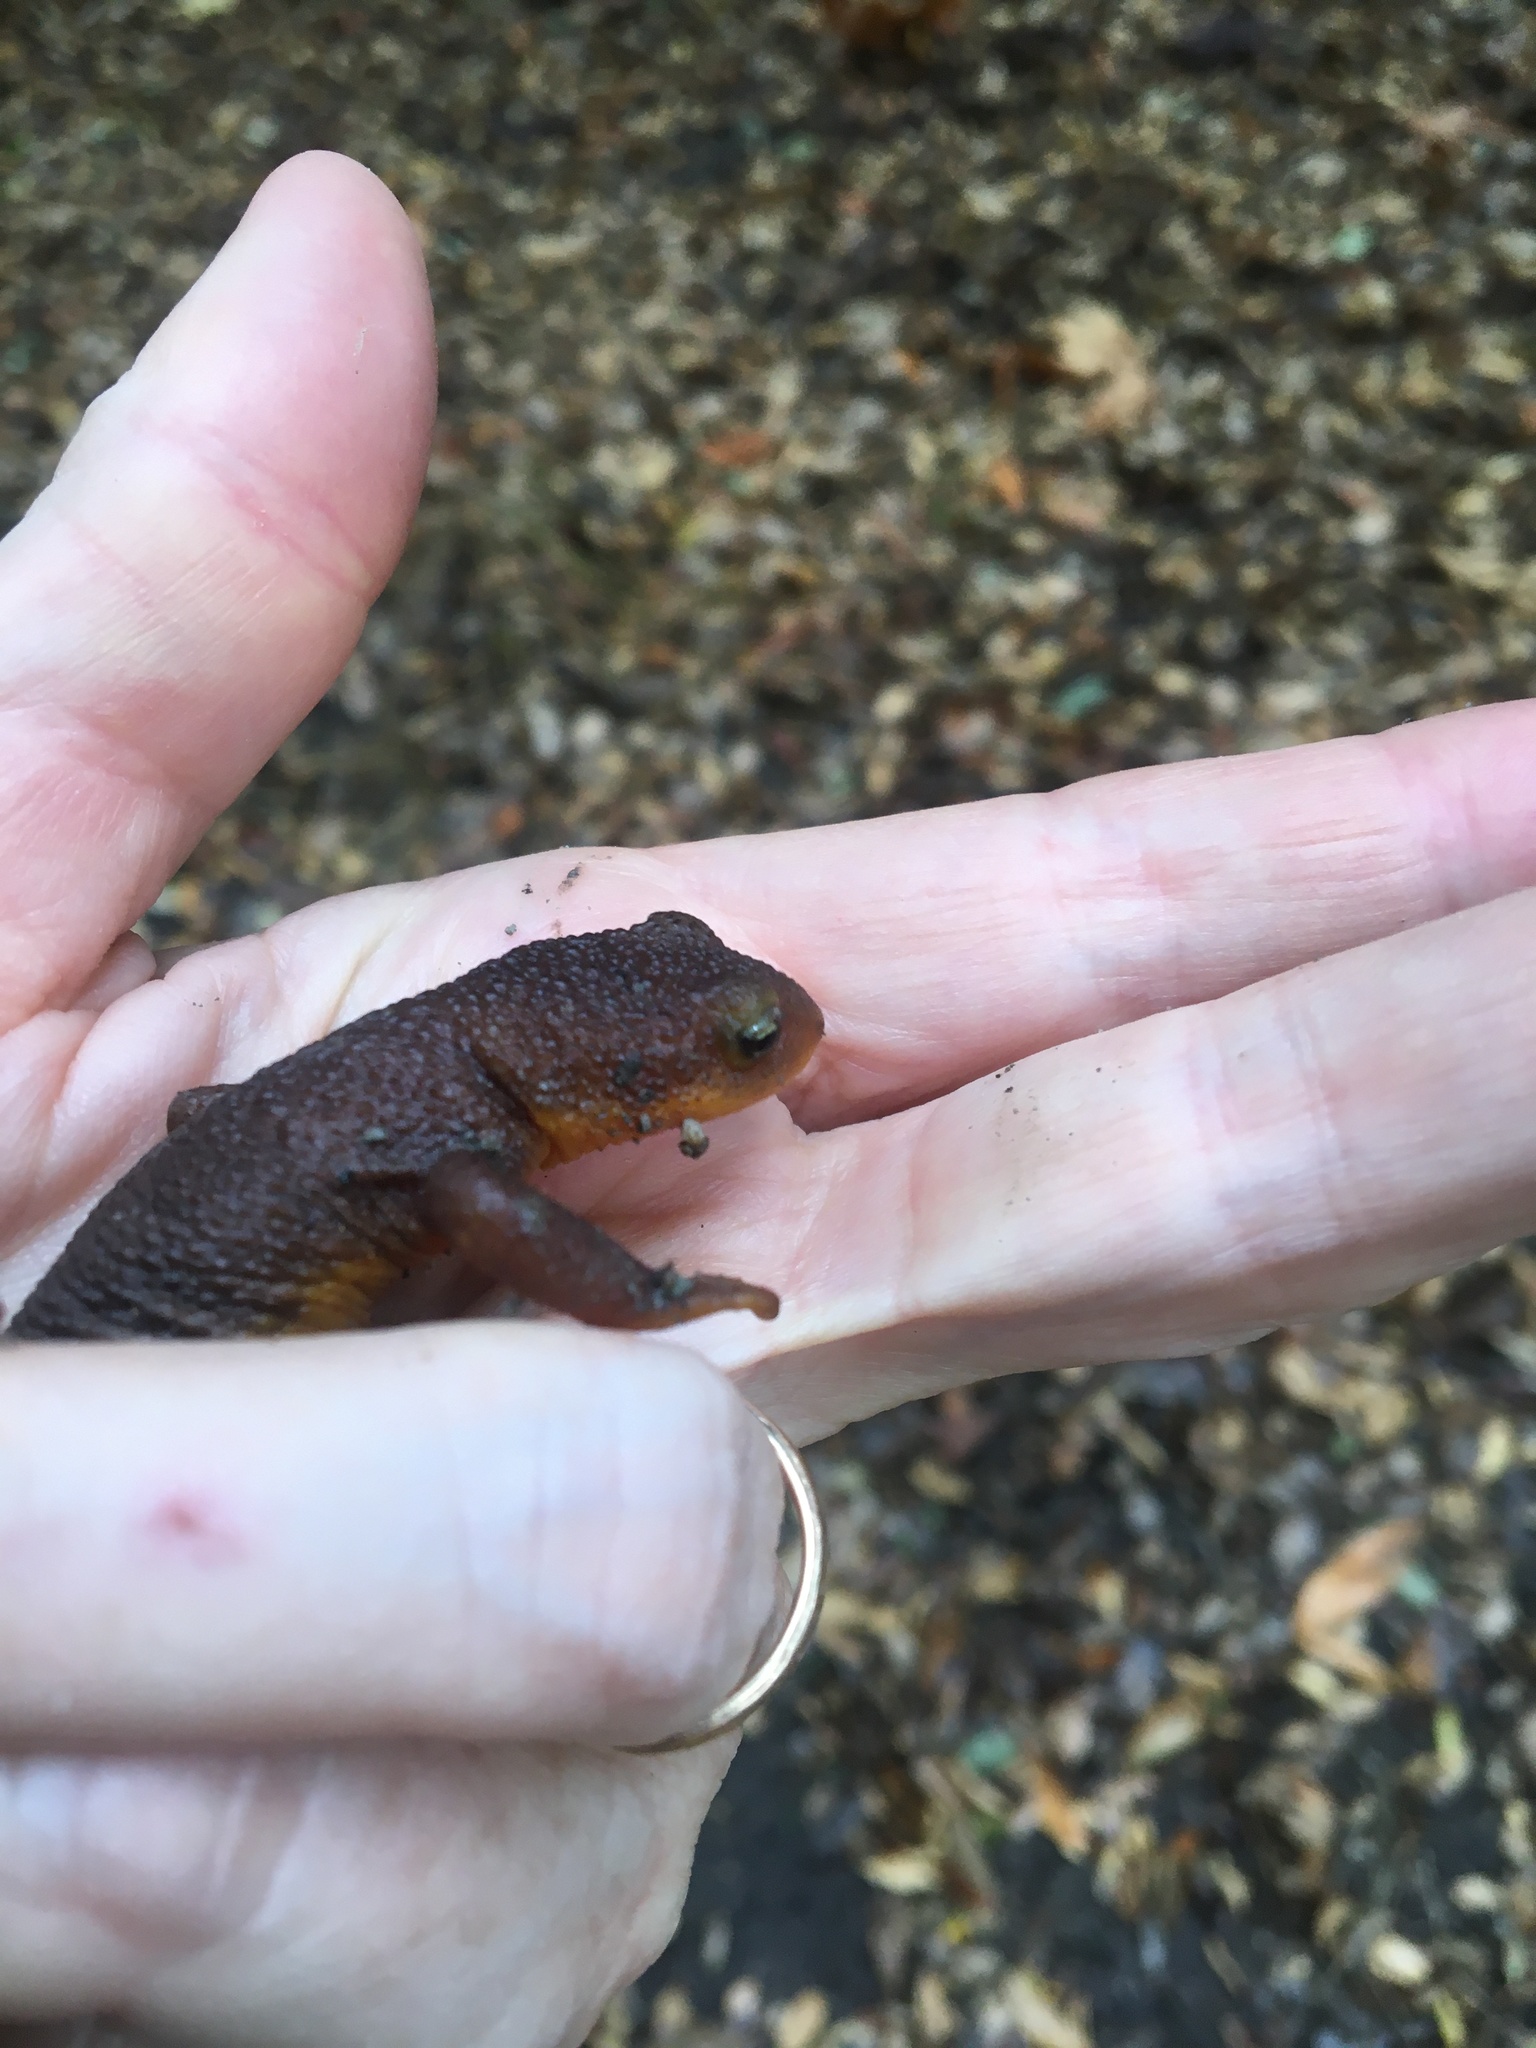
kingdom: Animalia
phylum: Chordata
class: Amphibia
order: Caudata
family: Salamandridae
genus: Taricha
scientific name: Taricha torosa
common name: California newt
